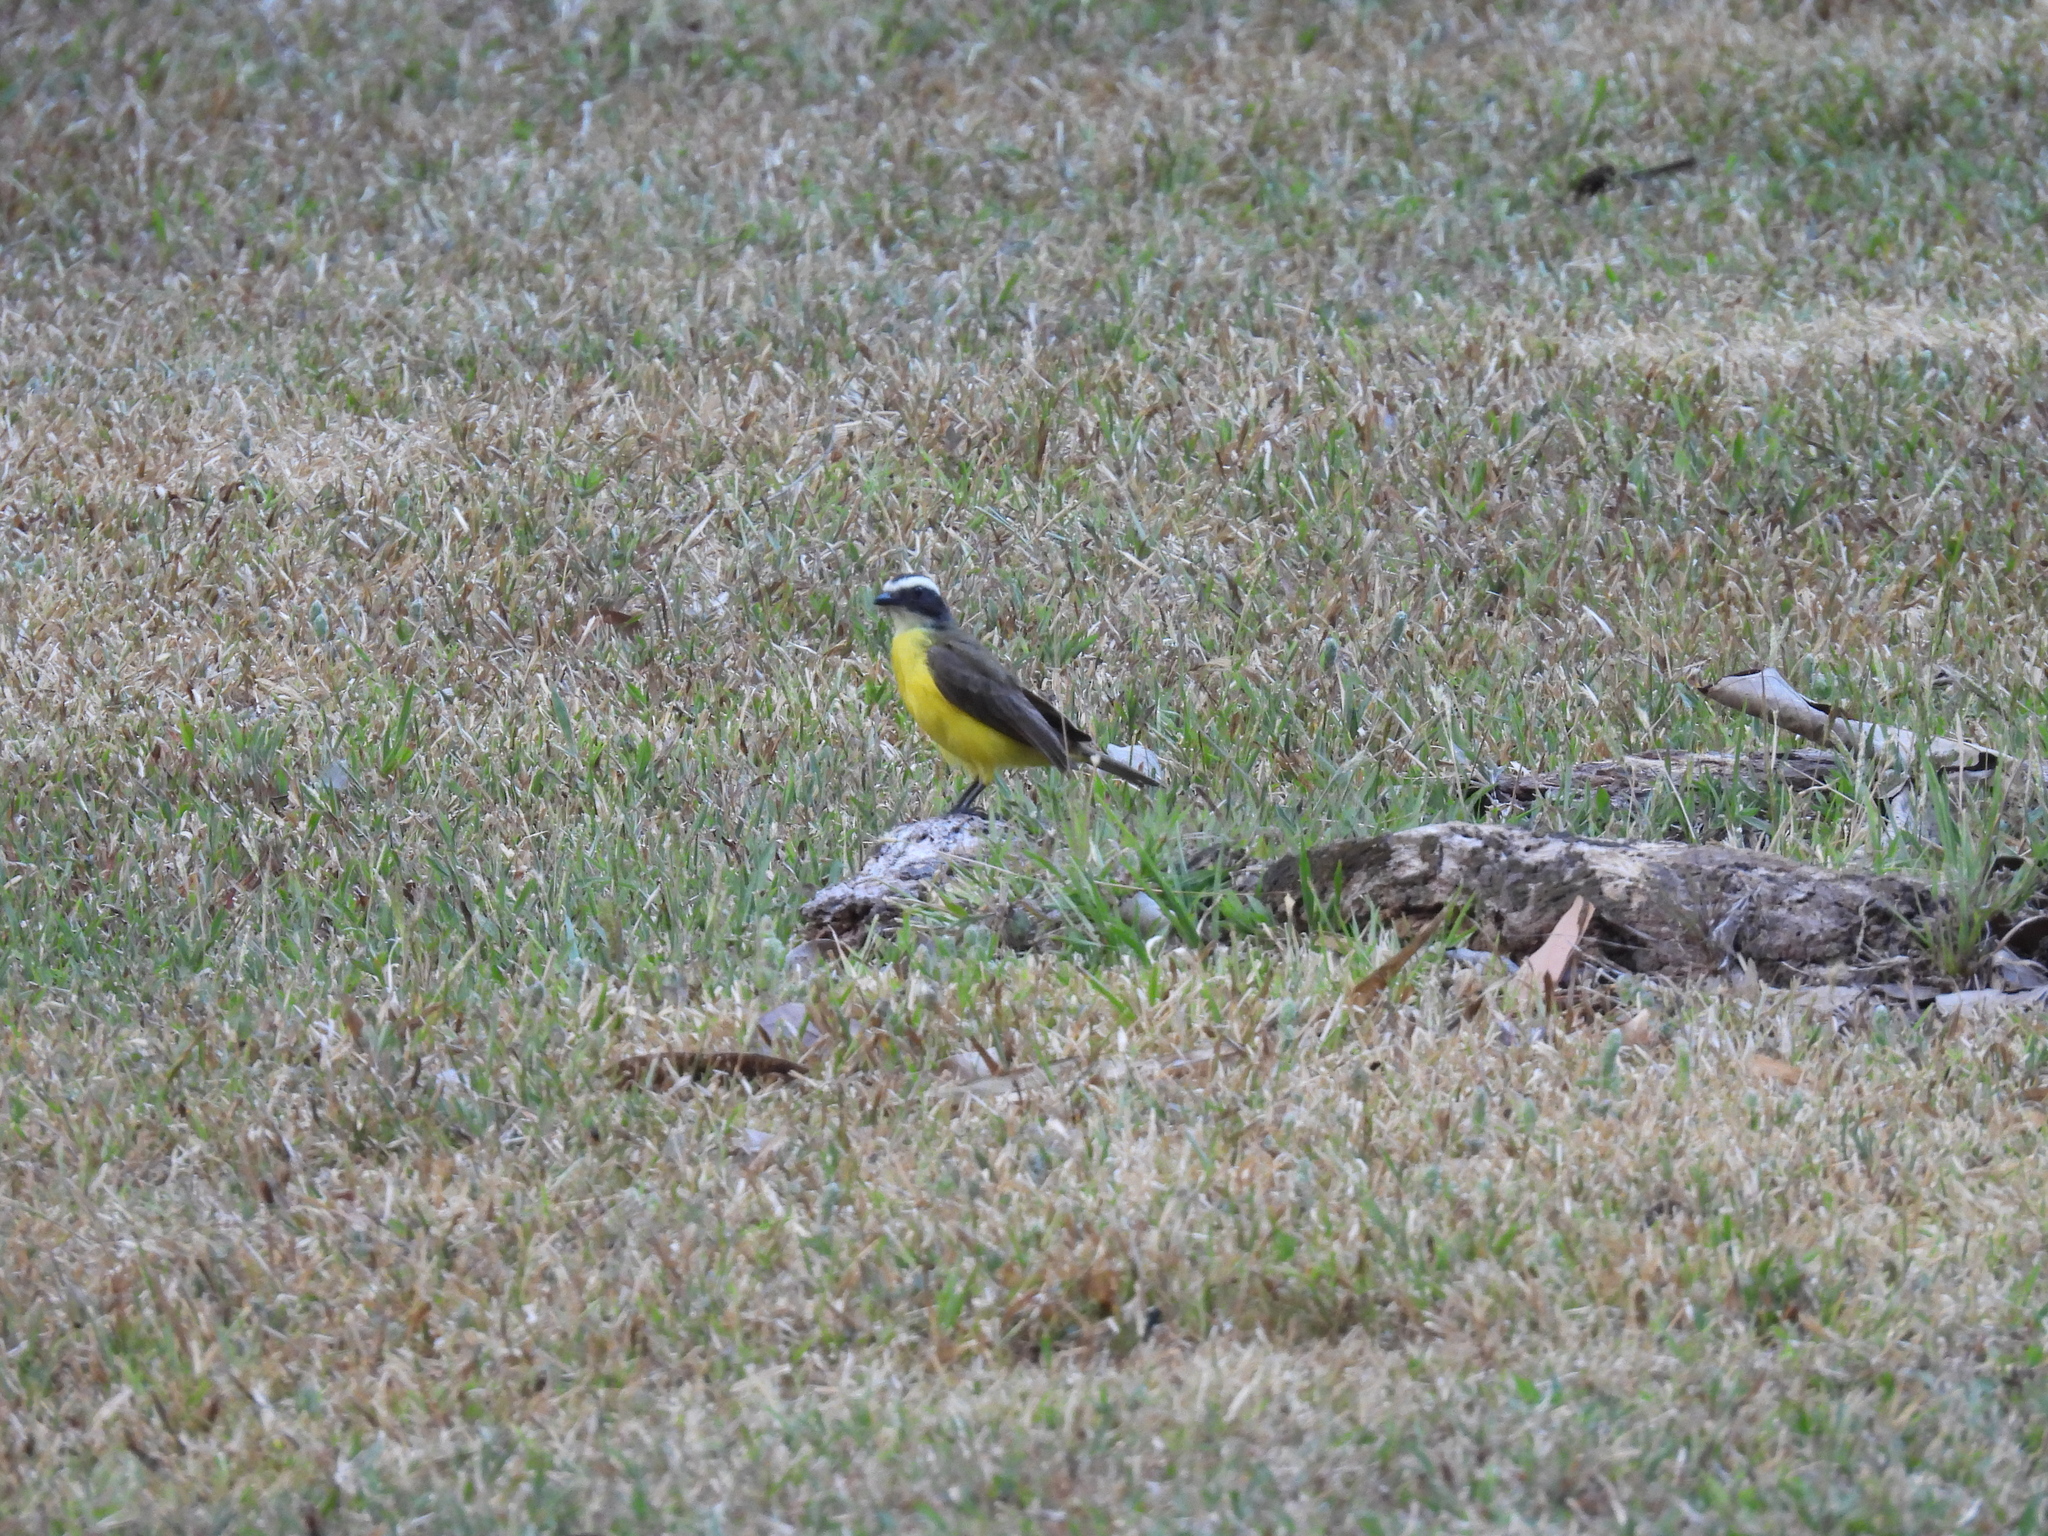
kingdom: Animalia
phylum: Chordata
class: Aves
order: Passeriformes
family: Tyrannidae
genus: Myiozetetes
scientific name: Myiozetetes cayanensis
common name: Rusty-margined flycatcher
